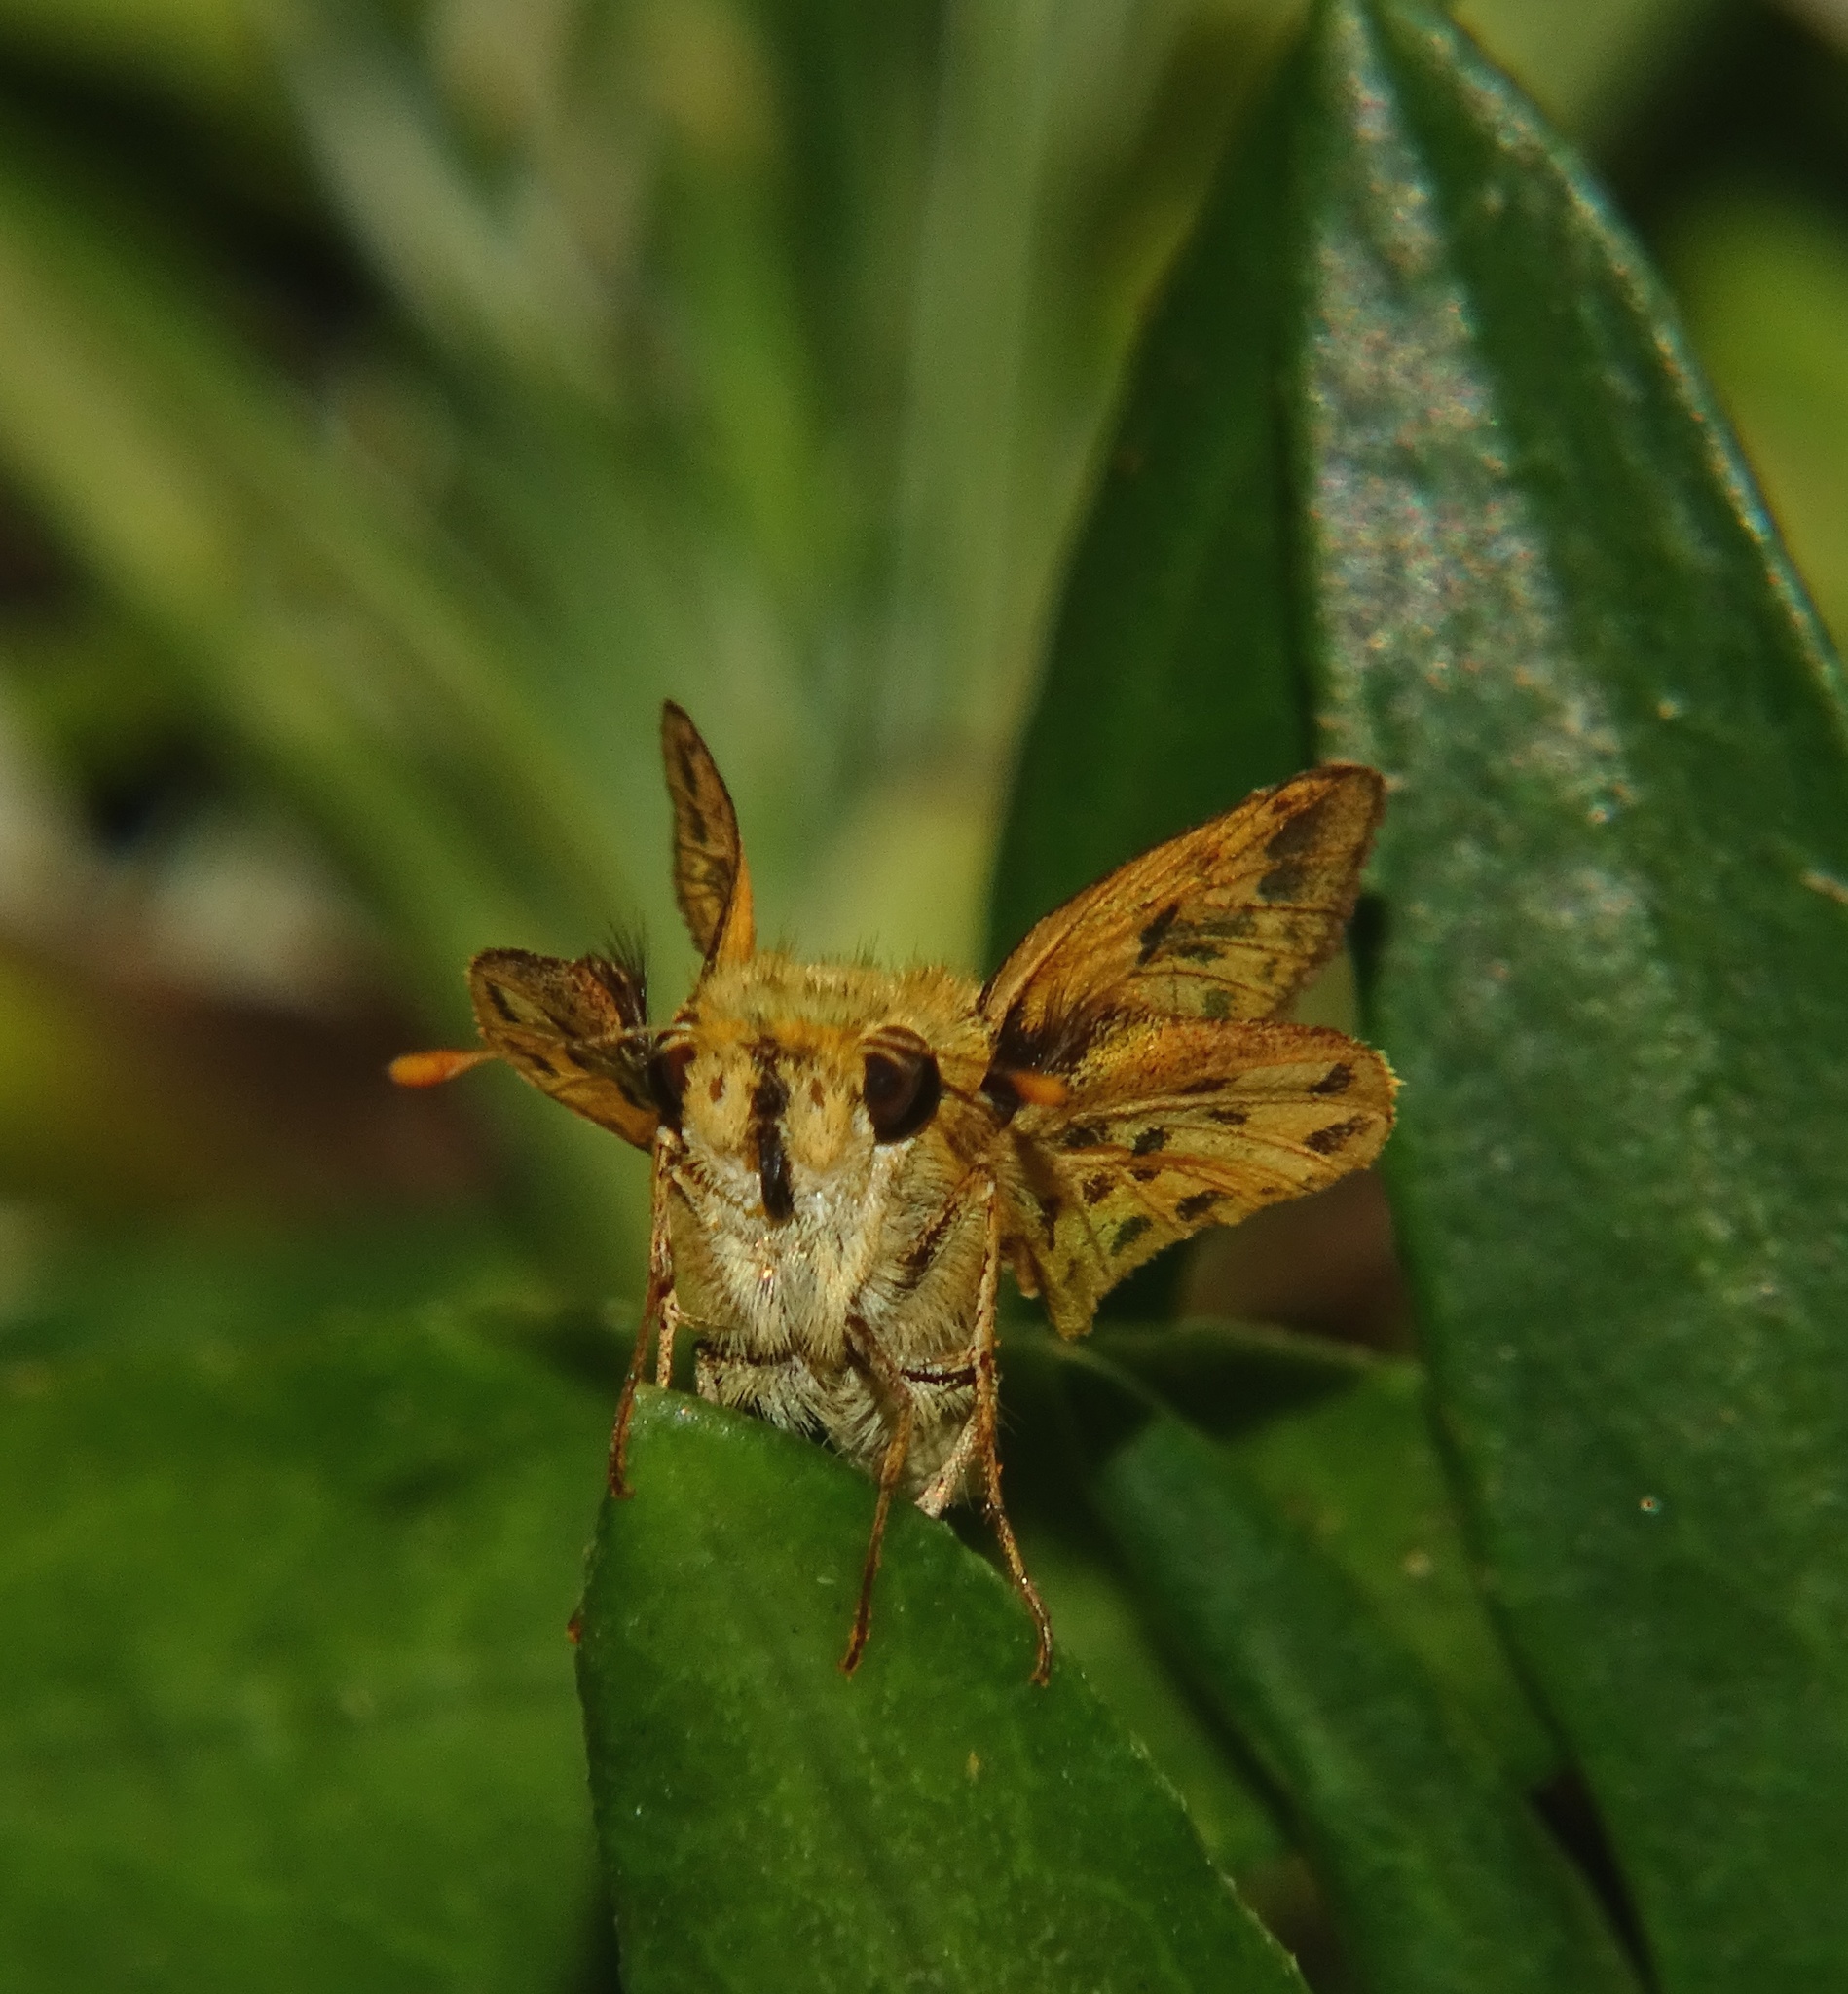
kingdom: Animalia
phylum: Arthropoda
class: Insecta
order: Lepidoptera
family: Hesperiidae
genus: Hylephila
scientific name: Hylephila phyleus
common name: Fiery skipper
